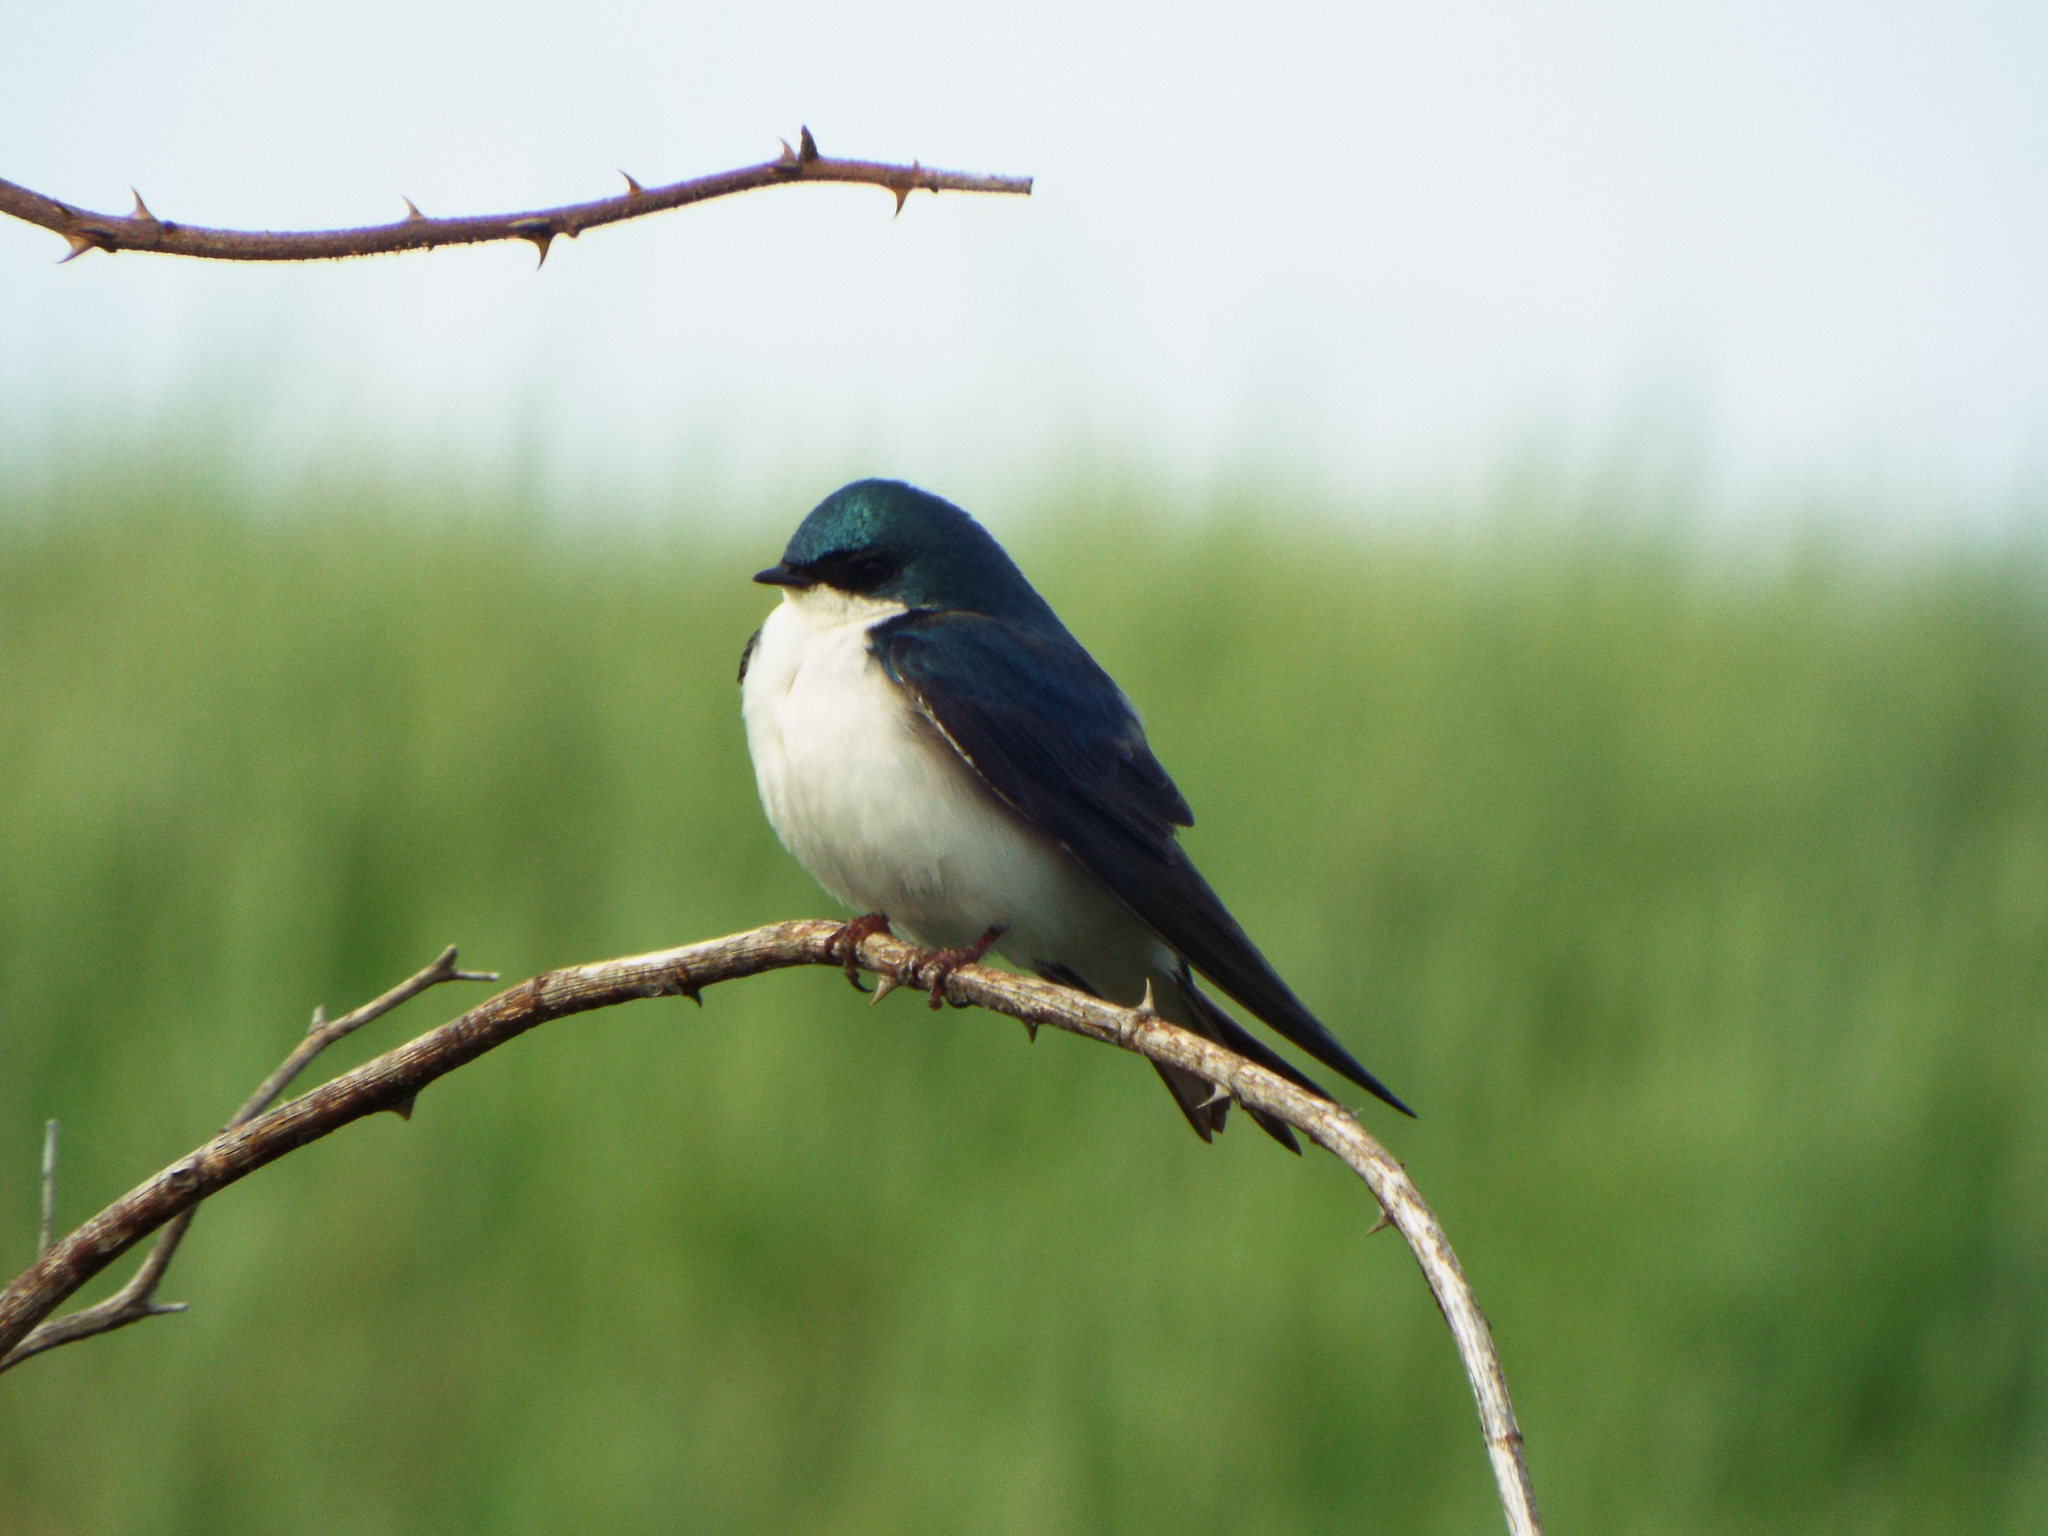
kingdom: Animalia
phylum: Chordata
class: Aves
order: Passeriformes
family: Hirundinidae
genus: Tachycineta
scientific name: Tachycineta bicolor
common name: Tree swallow
